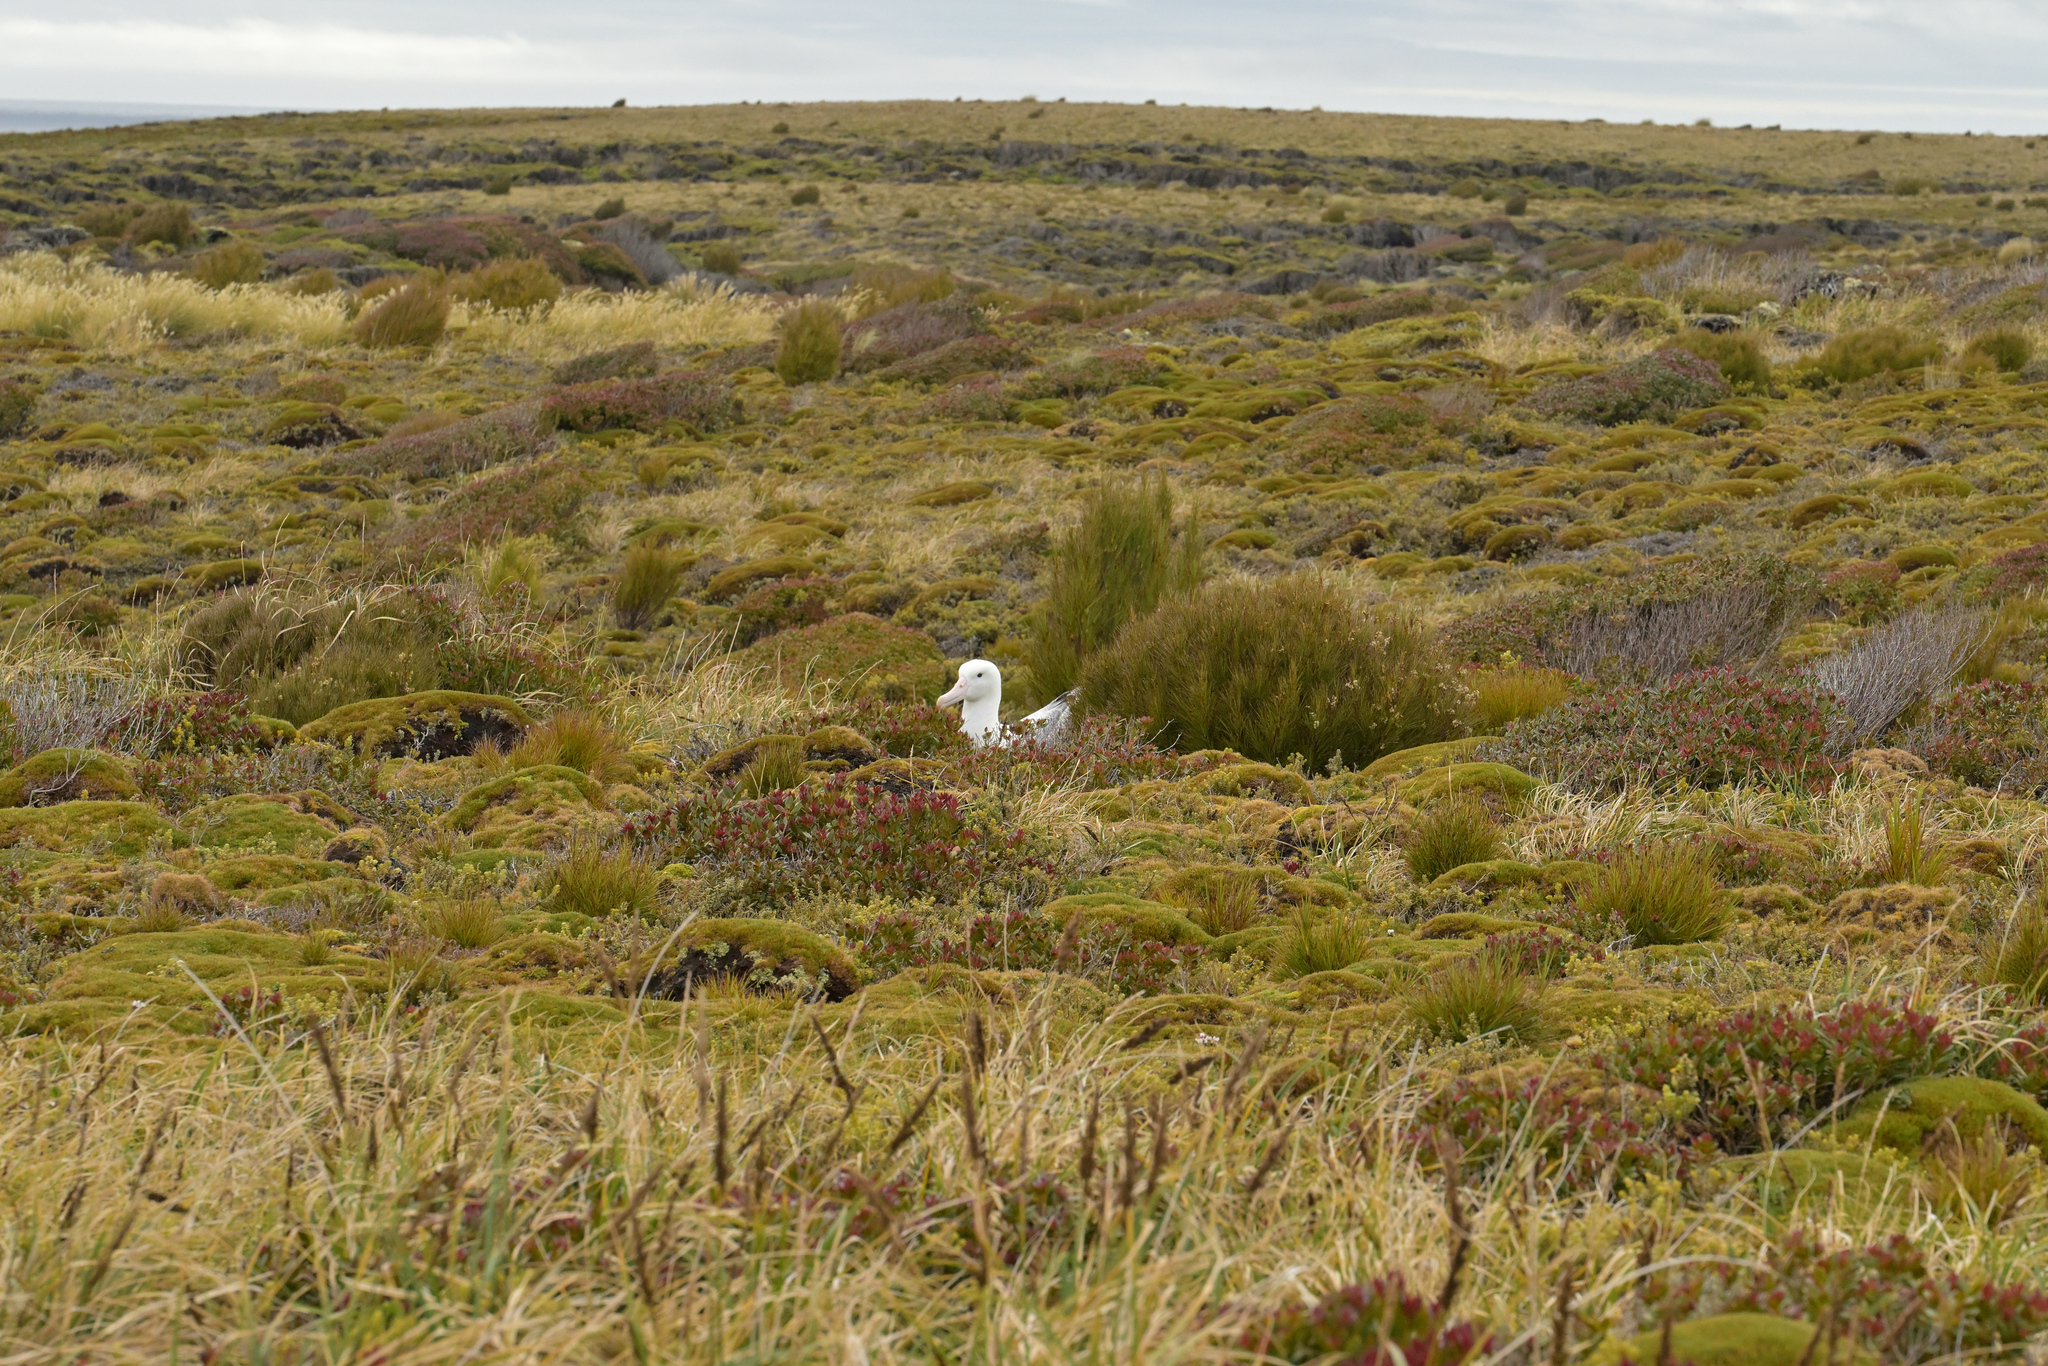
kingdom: Animalia
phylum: Chordata
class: Aves
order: Procellariiformes
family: Diomedeidae
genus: Diomedea
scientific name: Diomedea epomophora
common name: Southern royal albatross
